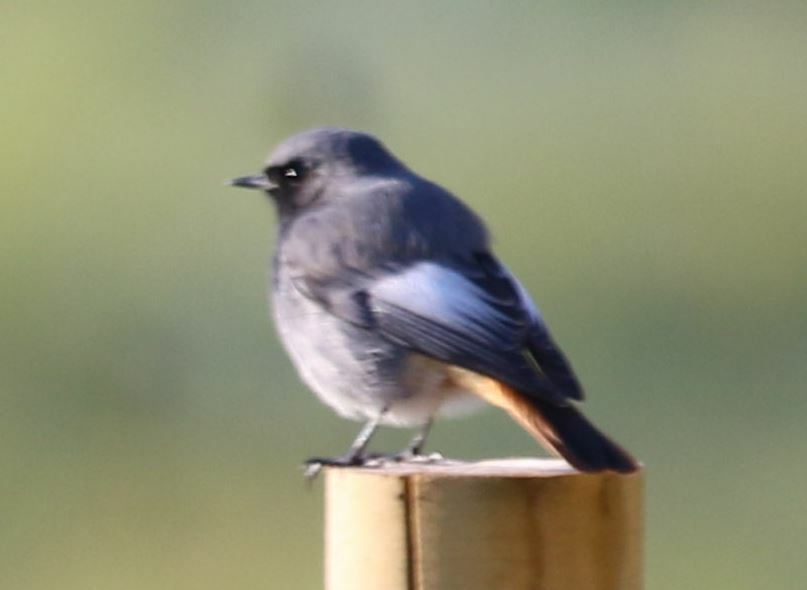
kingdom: Animalia
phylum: Chordata
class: Aves
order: Passeriformes
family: Muscicapidae
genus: Phoenicurus
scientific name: Phoenicurus ochruros
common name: Black redstart
